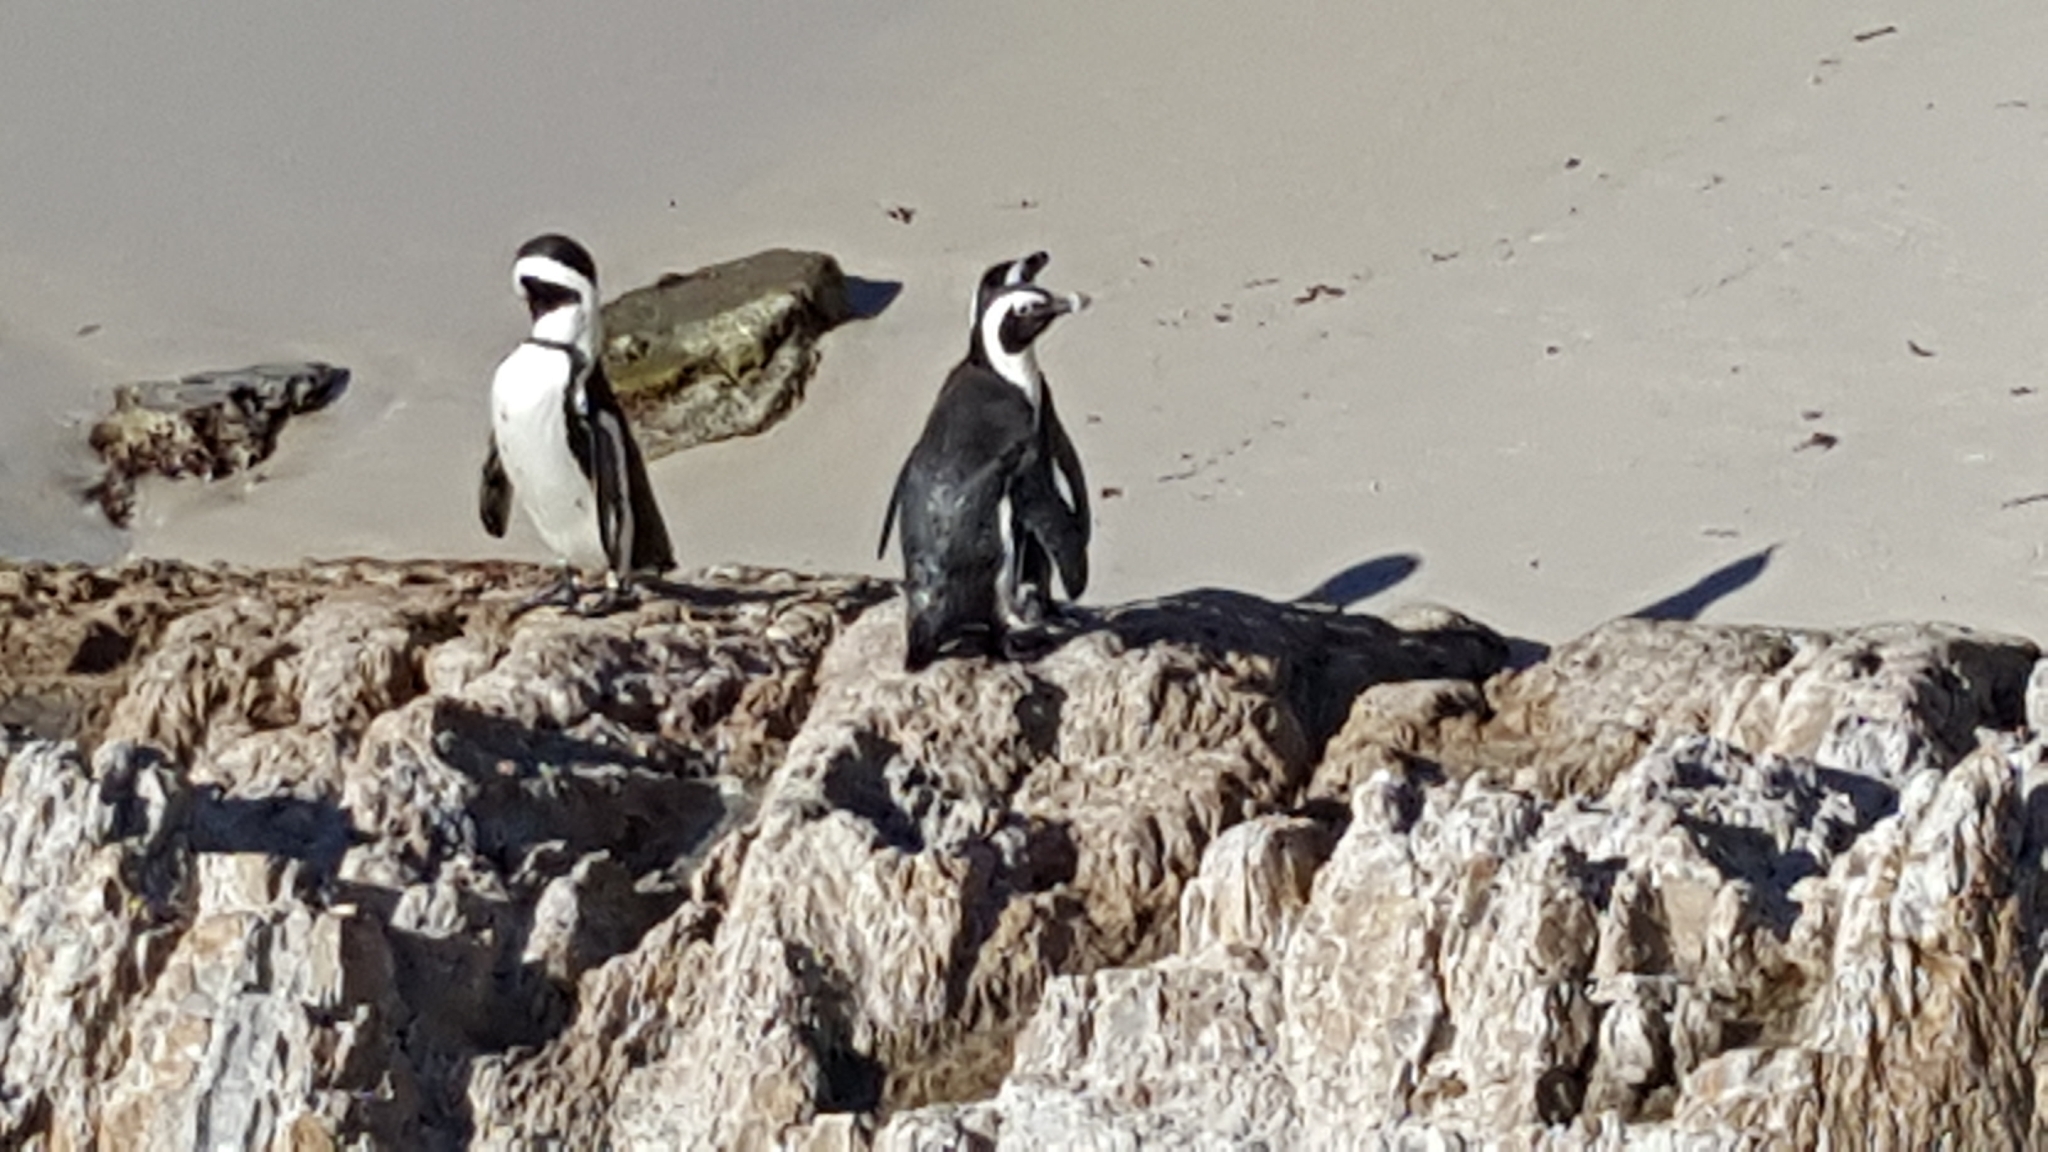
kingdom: Animalia
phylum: Chordata
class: Aves
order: Sphenisciformes
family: Spheniscidae
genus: Spheniscus
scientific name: Spheniscus demersus
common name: African penguin
